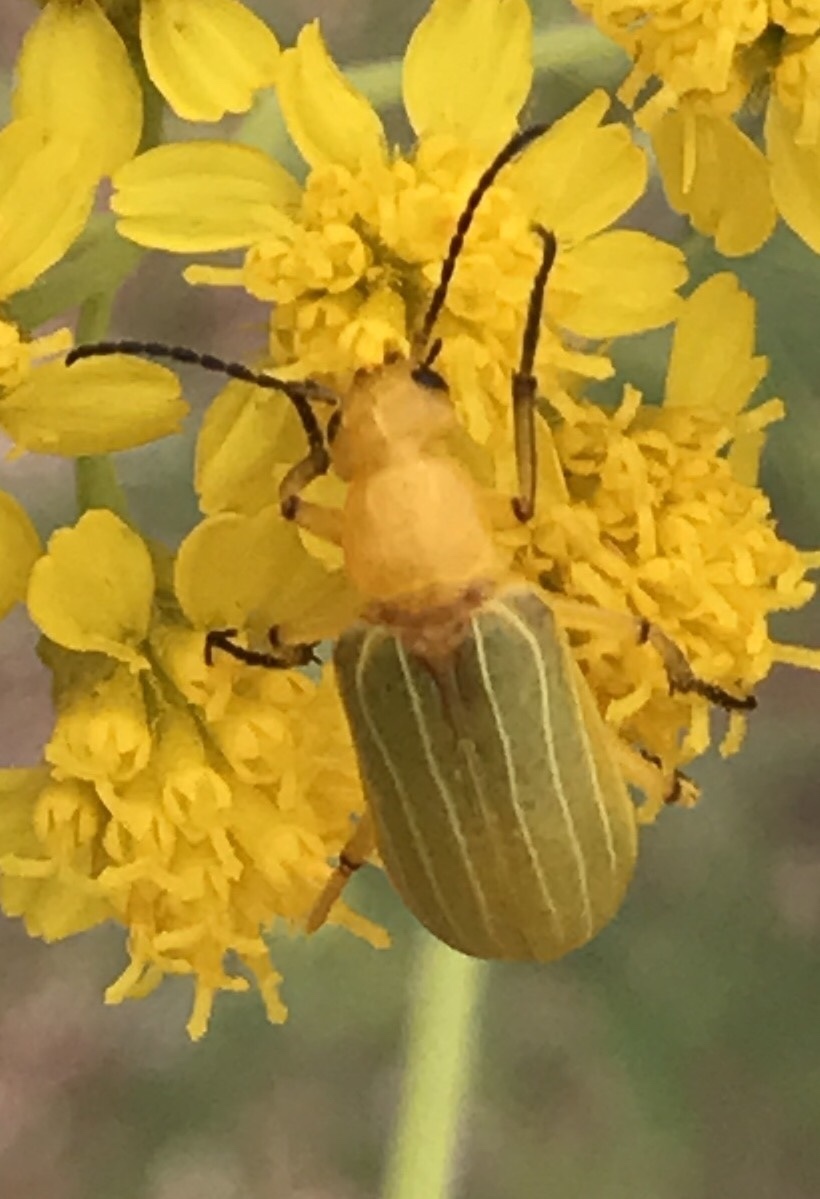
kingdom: Animalia
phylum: Arthropoda
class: Insecta
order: Coleoptera
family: Meloidae
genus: Zonitis
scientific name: Zonitis dunniana
